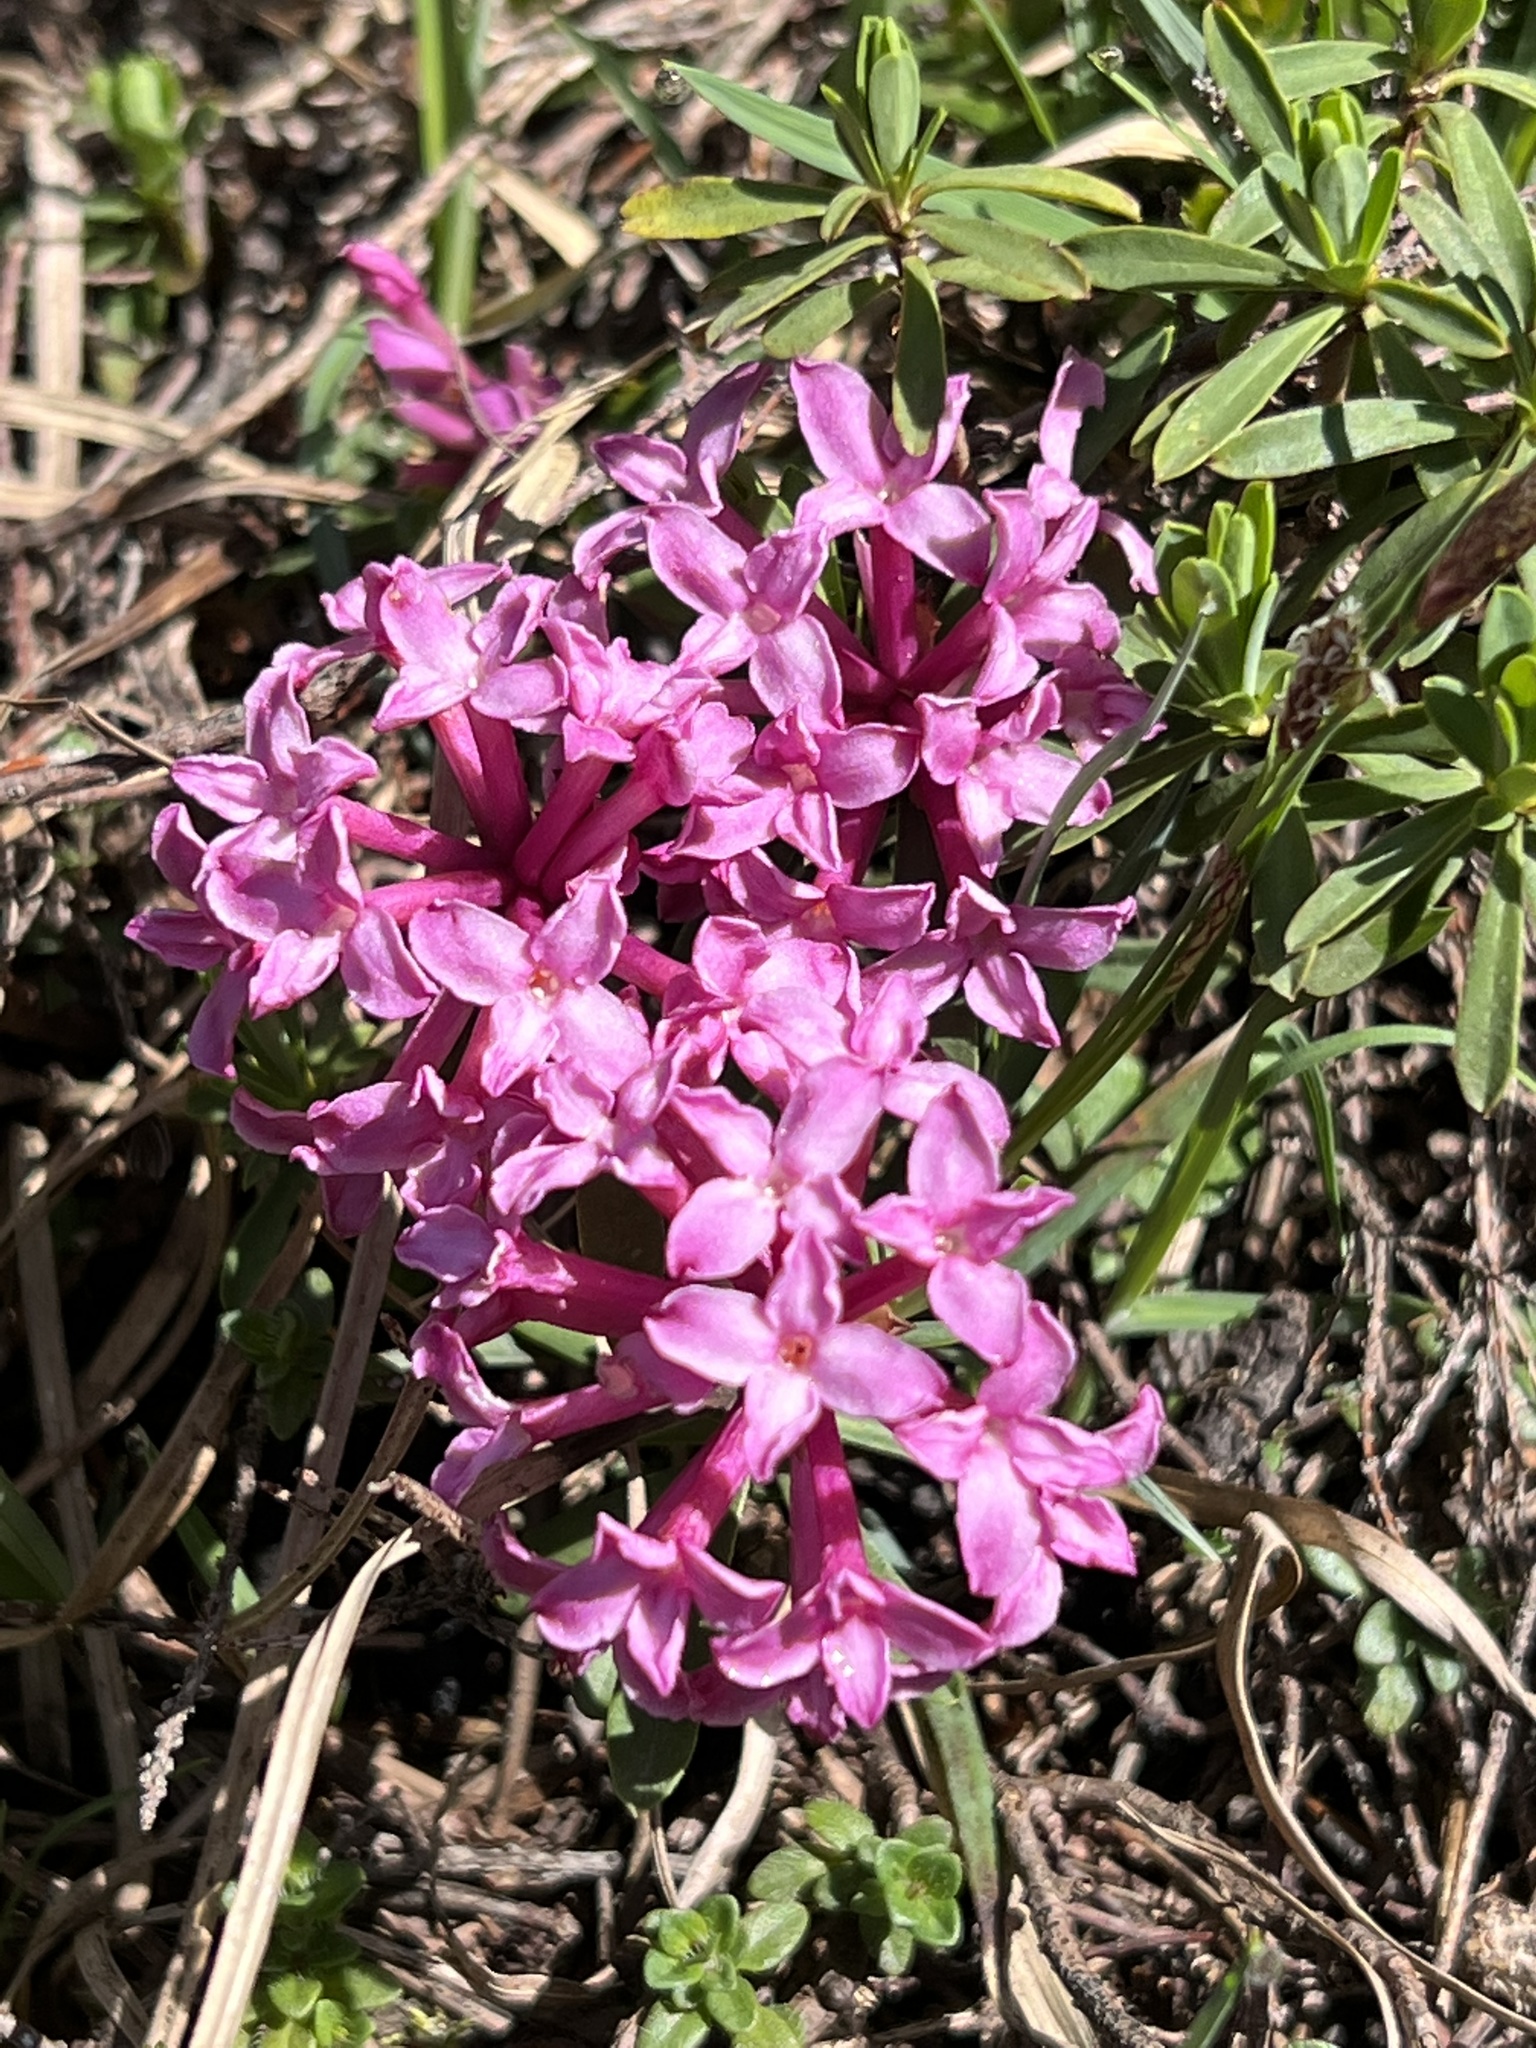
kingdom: Plantae
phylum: Tracheophyta
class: Magnoliopsida
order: Malvales
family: Thymelaeaceae
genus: Daphne
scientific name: Daphne striata
